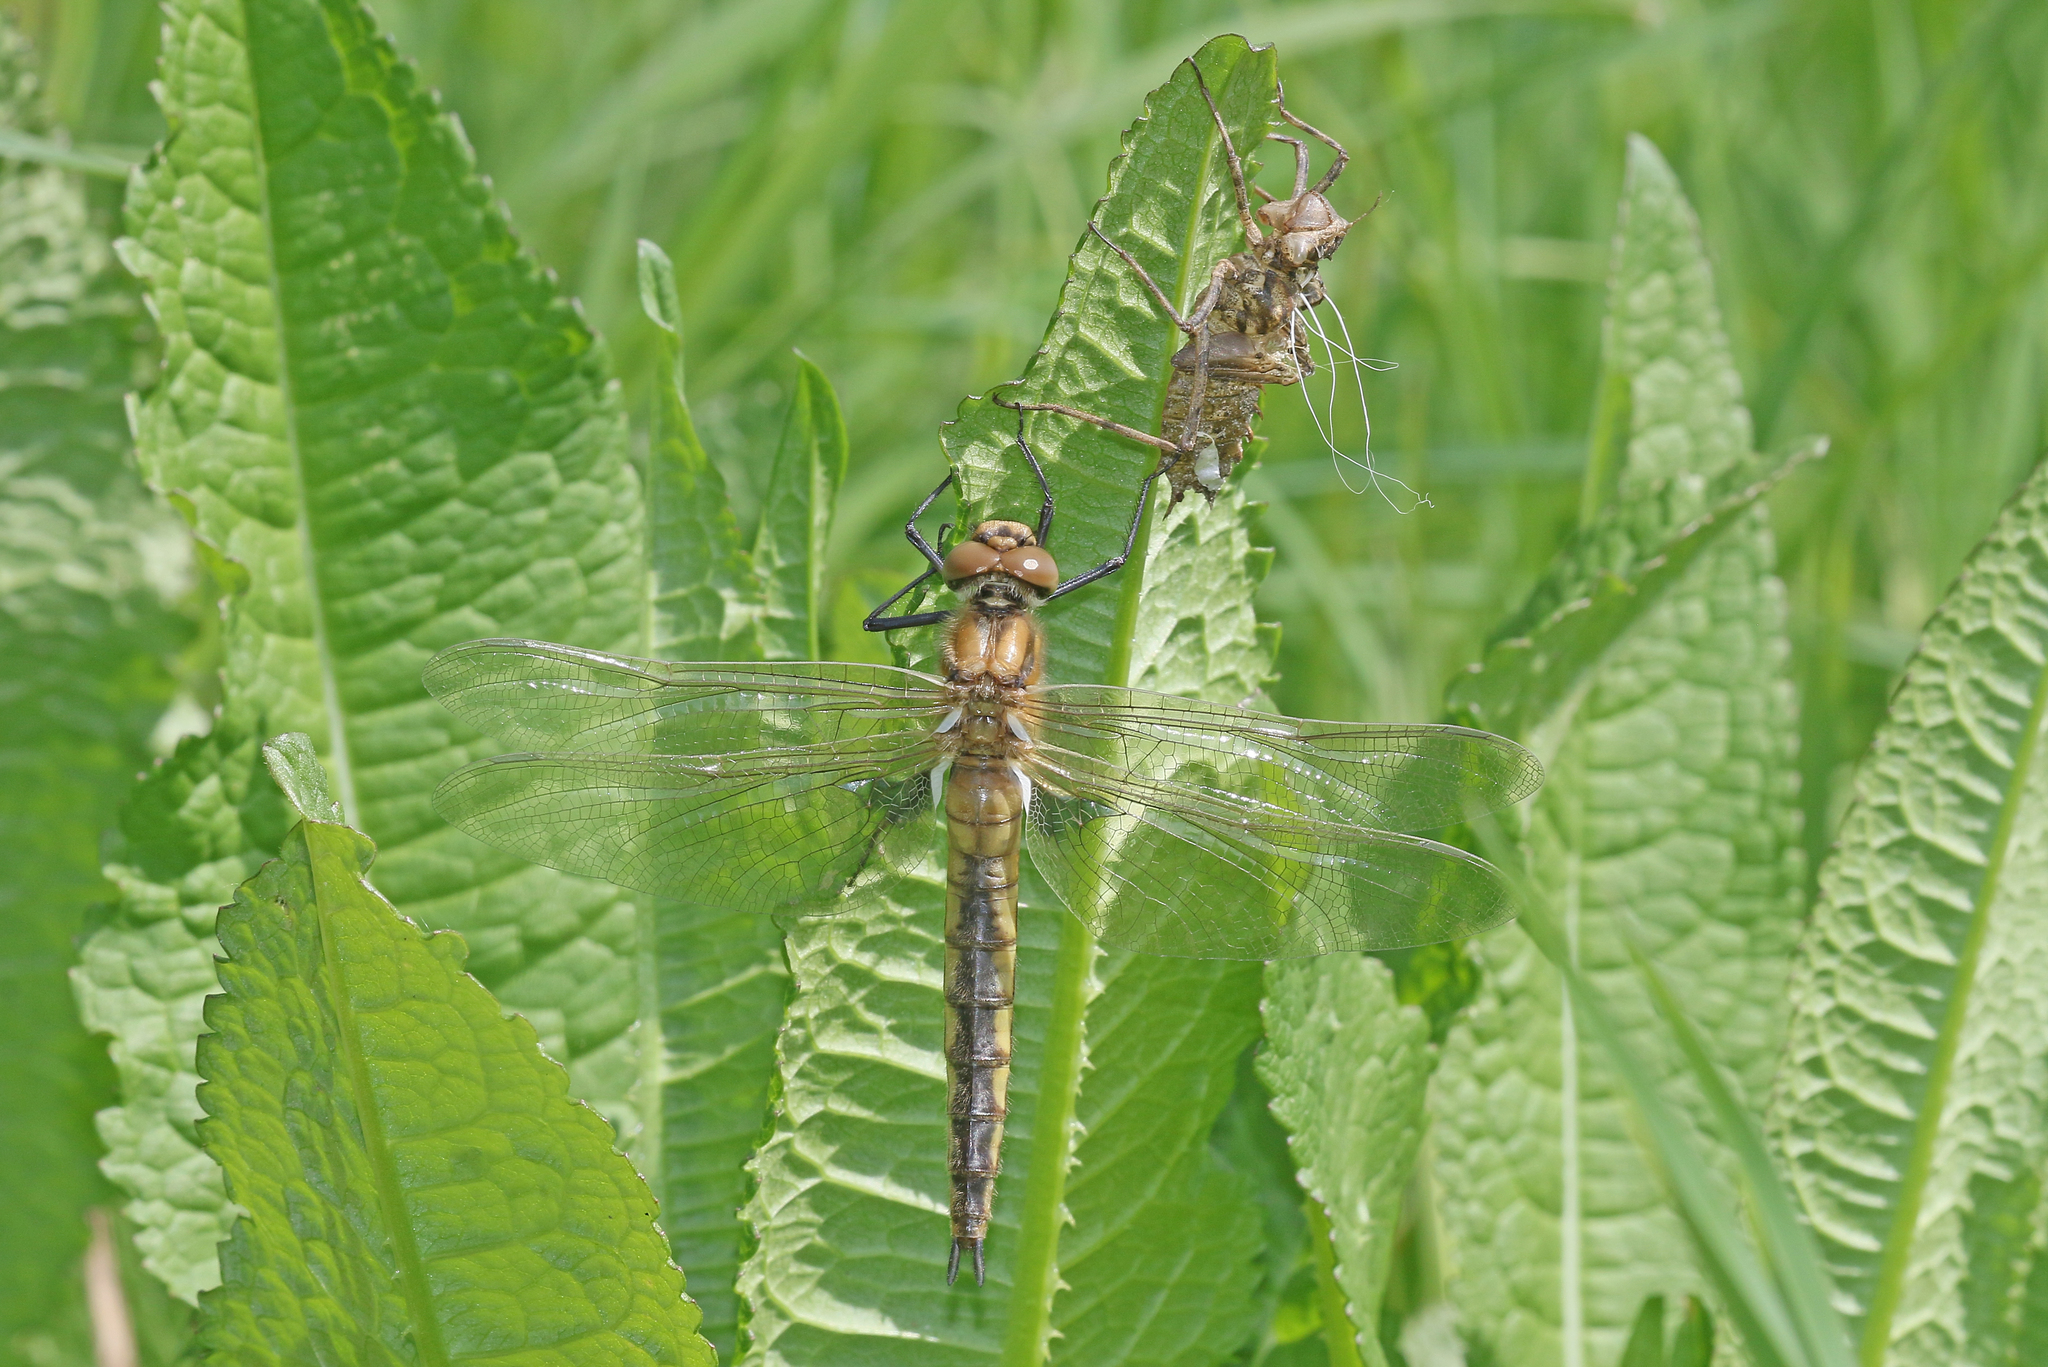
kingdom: Animalia
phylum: Arthropoda
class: Insecta
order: Odonata
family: Corduliidae
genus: Epitheca
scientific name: Epitheca bimaculata
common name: Eurasian baskettail
